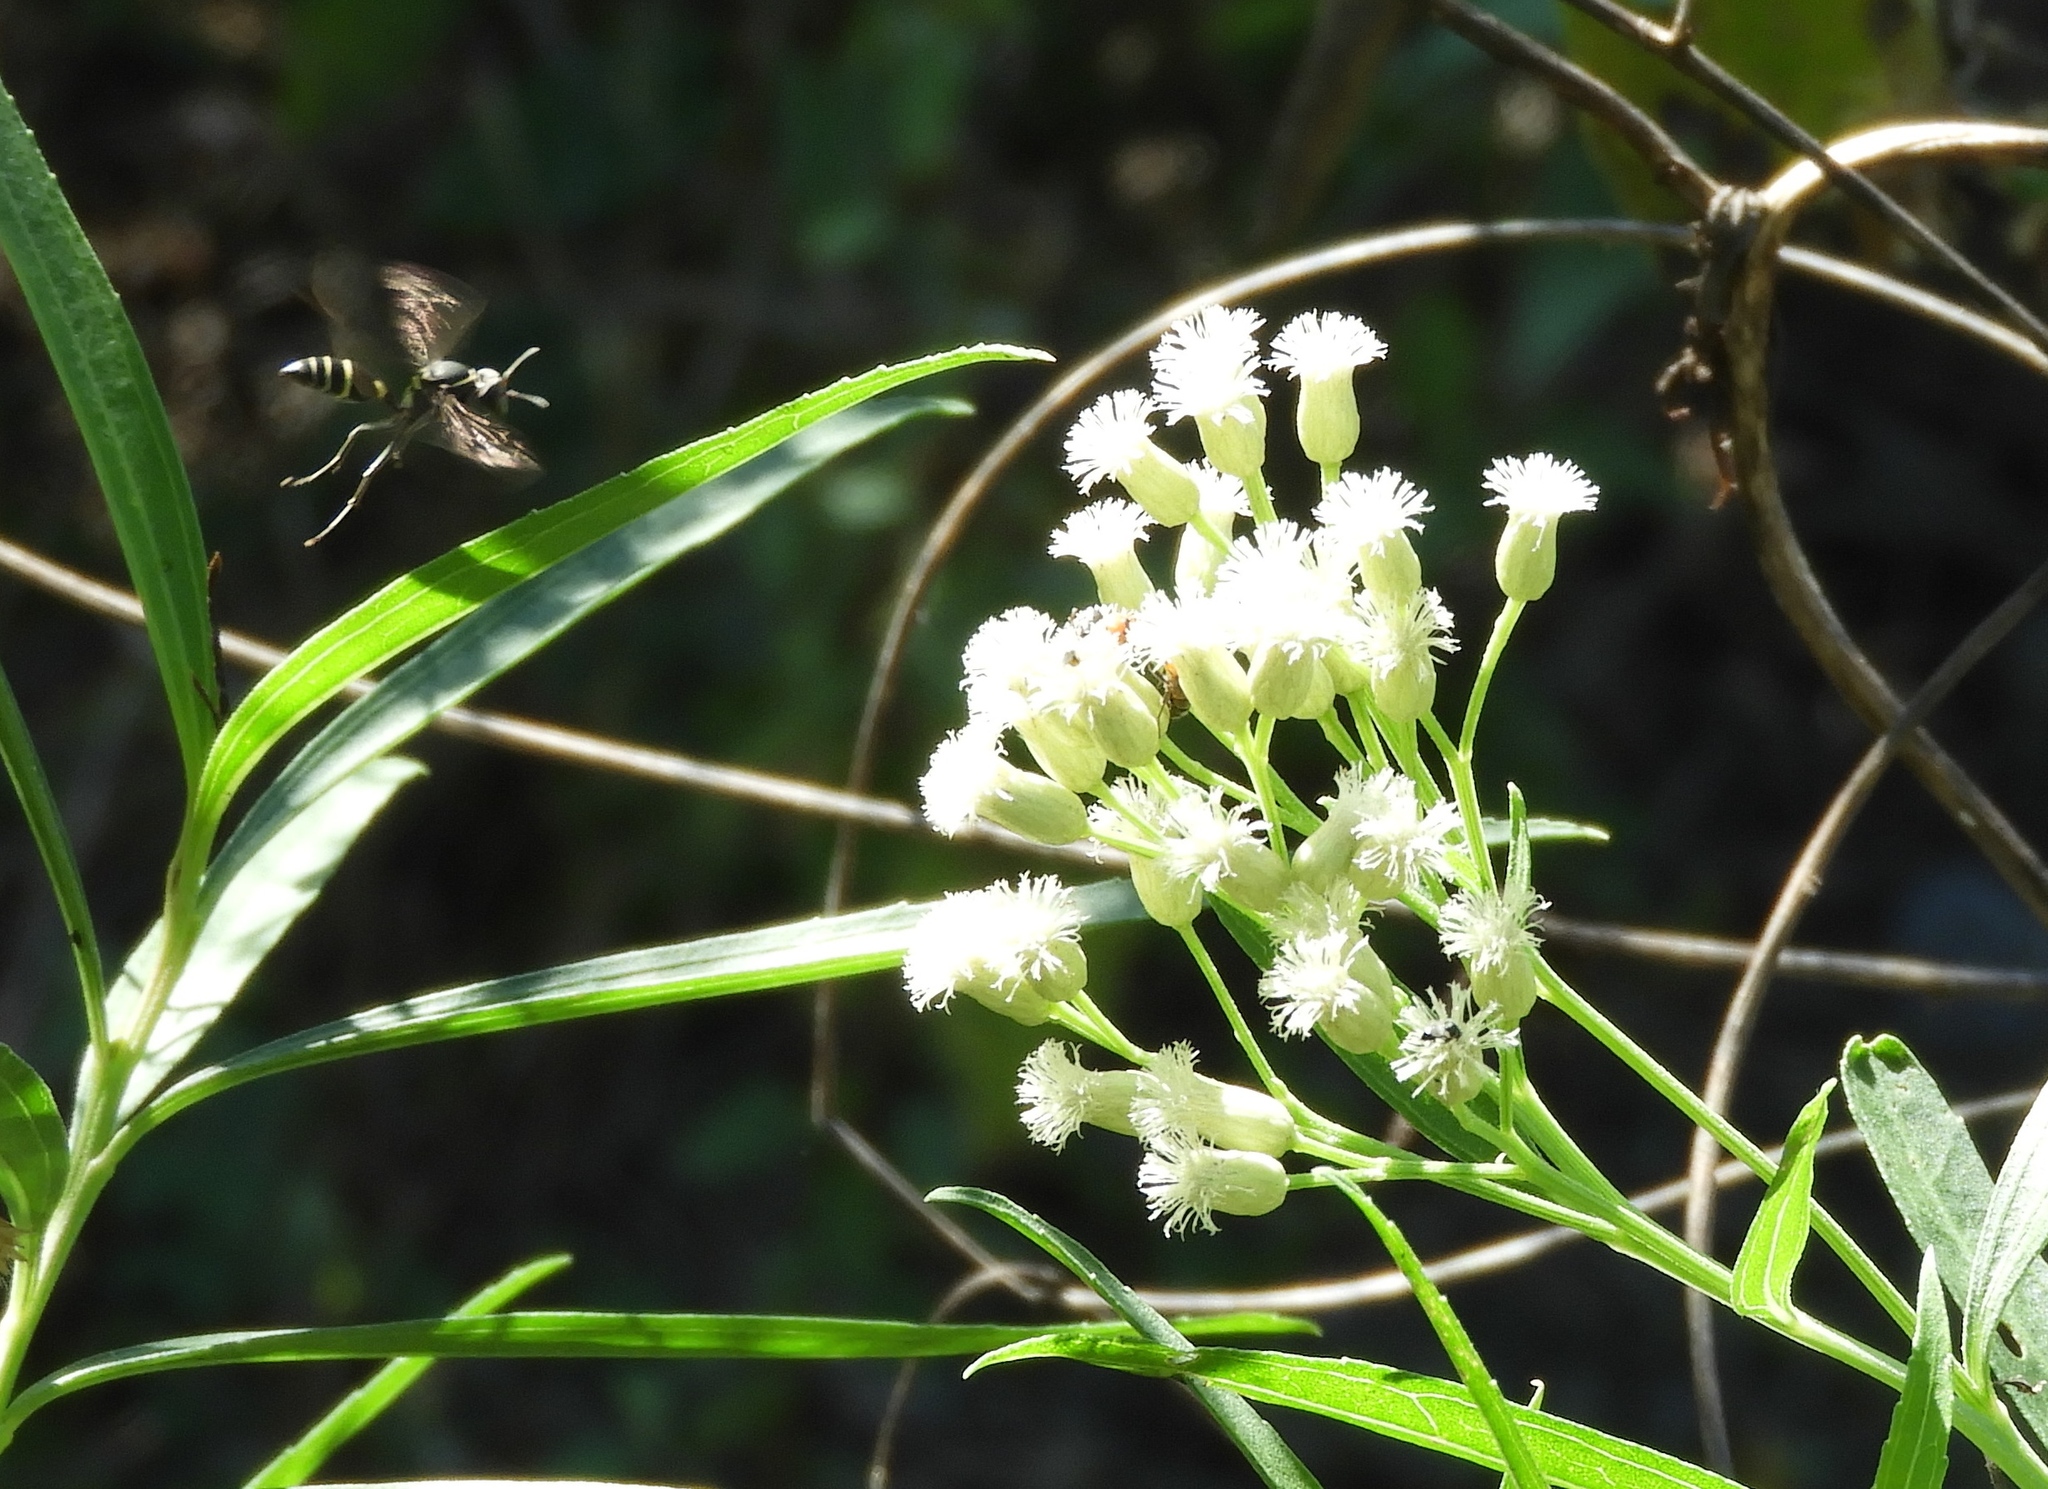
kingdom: Plantae
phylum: Tracheophyta
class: Magnoliopsida
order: Asterales
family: Asteraceae
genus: Baccharis
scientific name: Baccharis salicifolia
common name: Sticky baccharis
